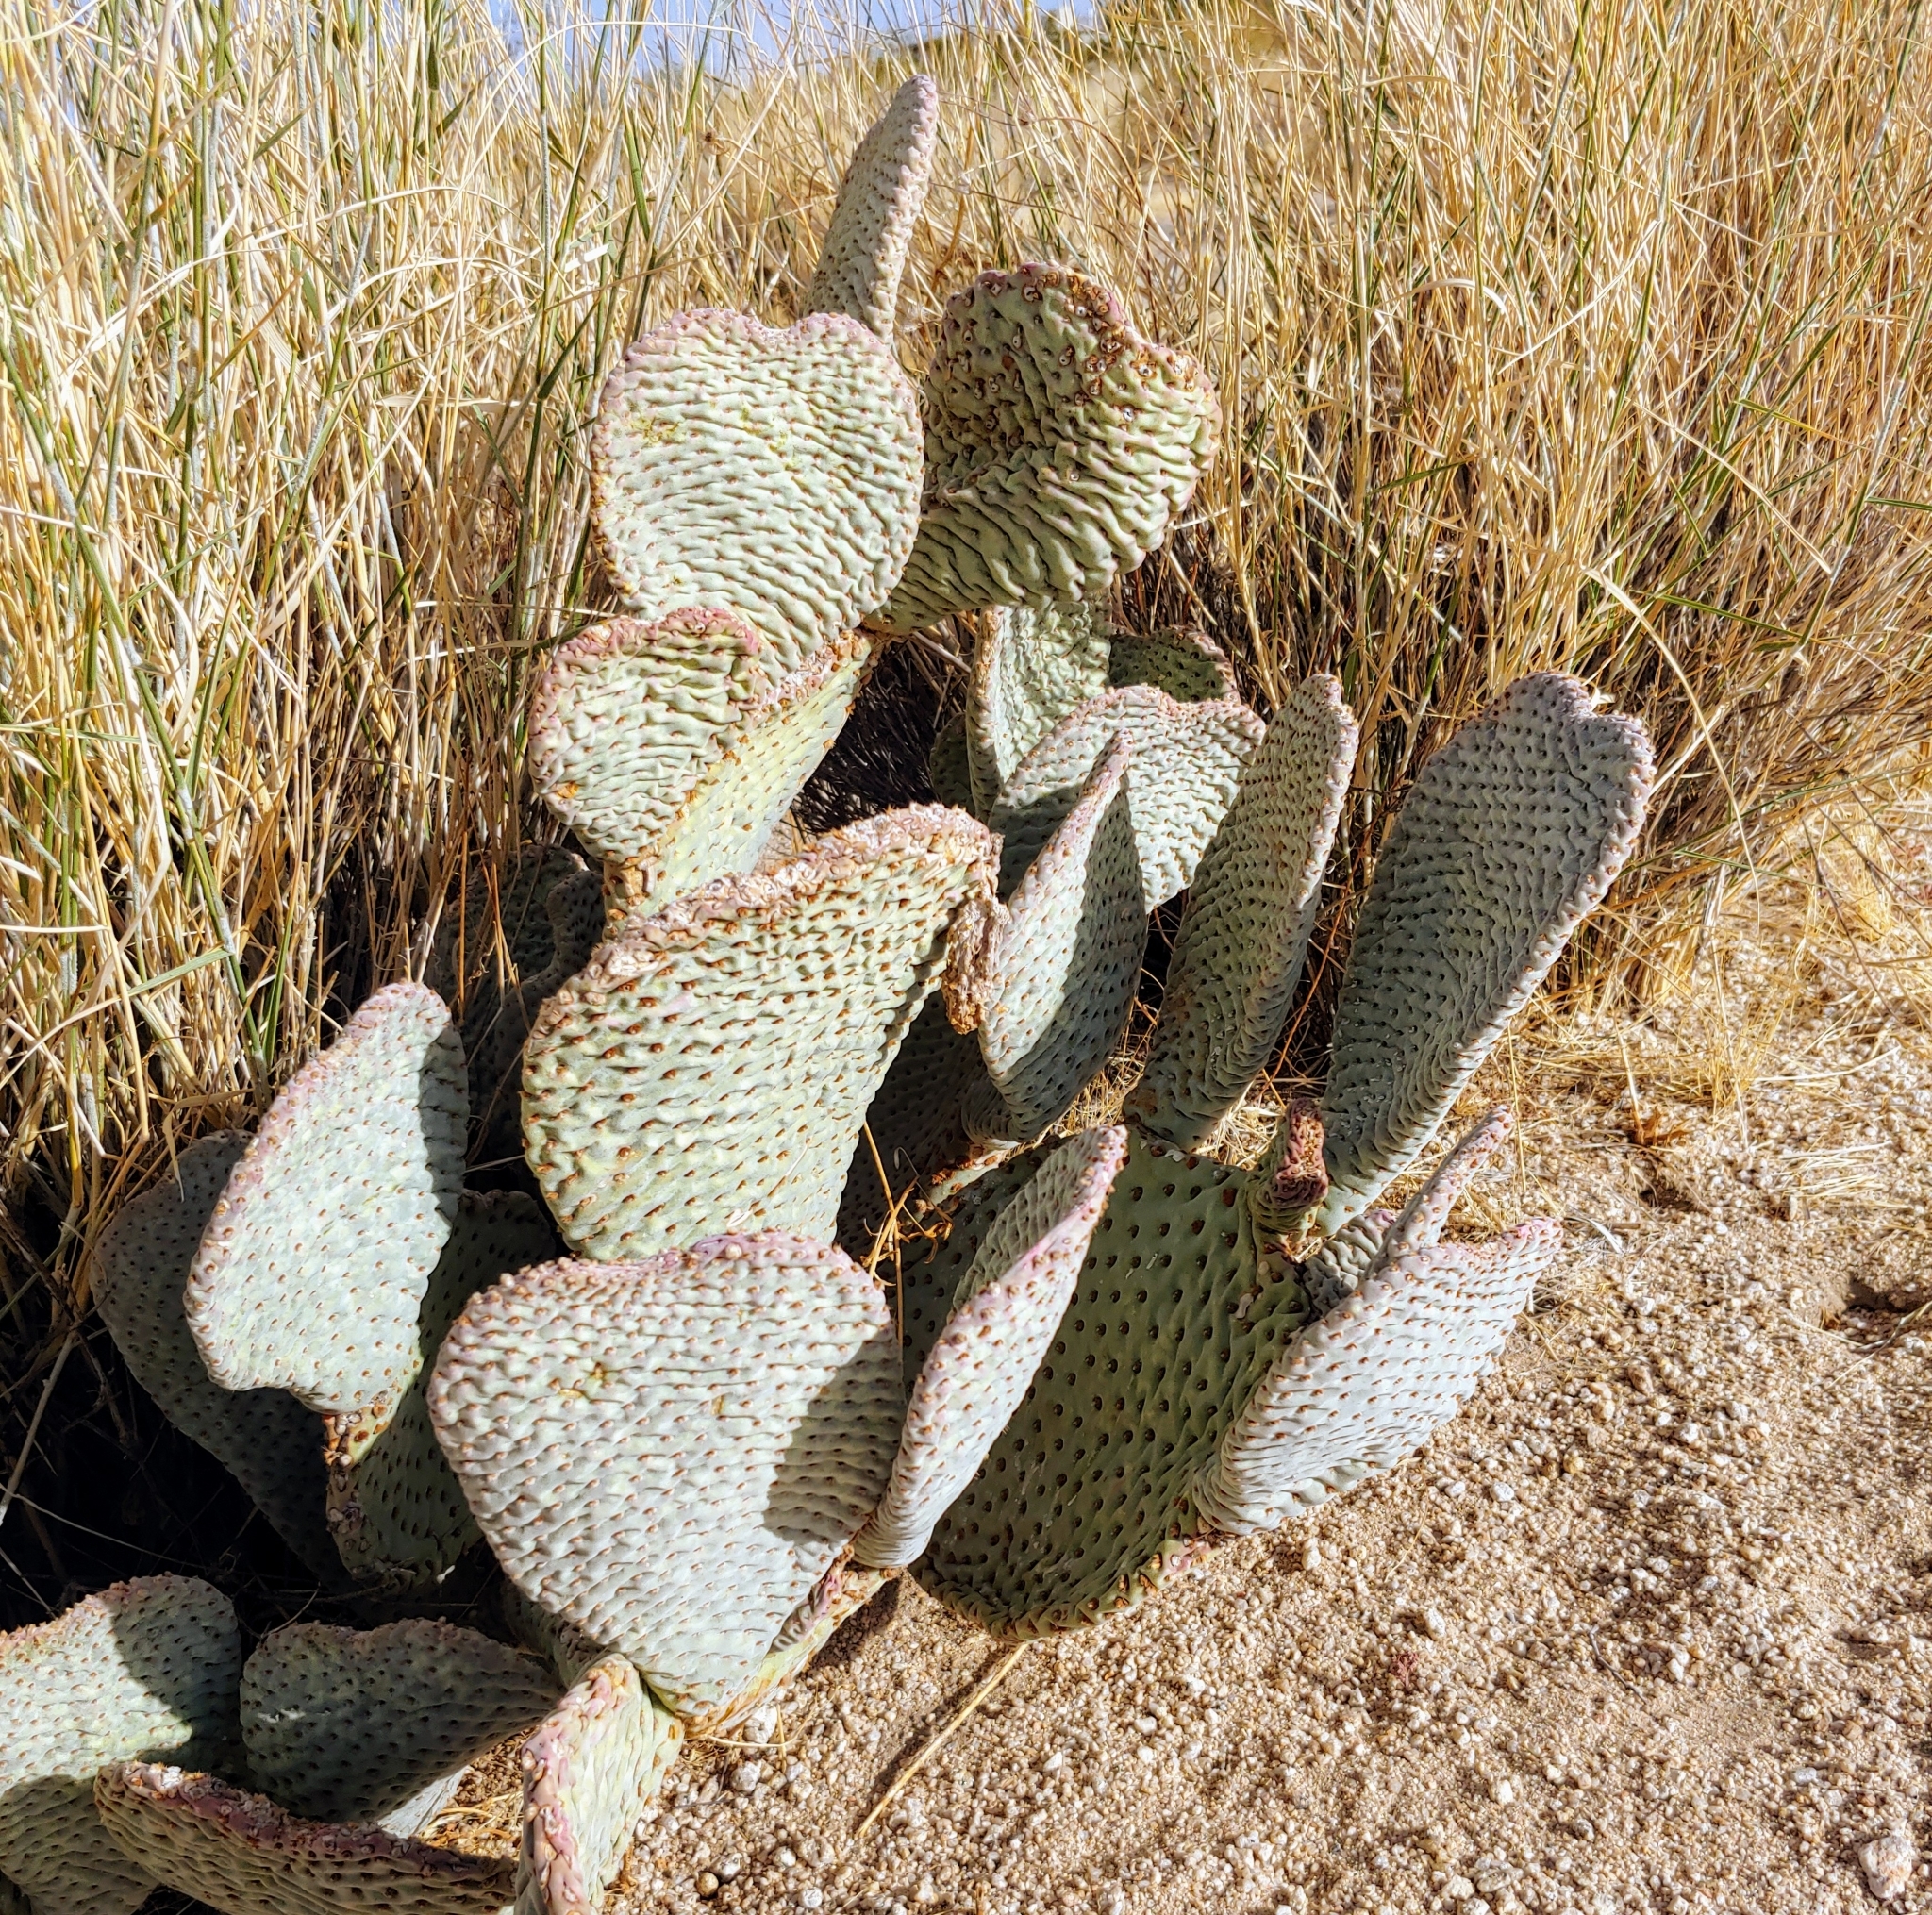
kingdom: Plantae
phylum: Tracheophyta
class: Magnoliopsida
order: Caryophyllales
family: Cactaceae
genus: Opuntia
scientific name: Opuntia basilaris
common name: Beavertail prickly-pear
